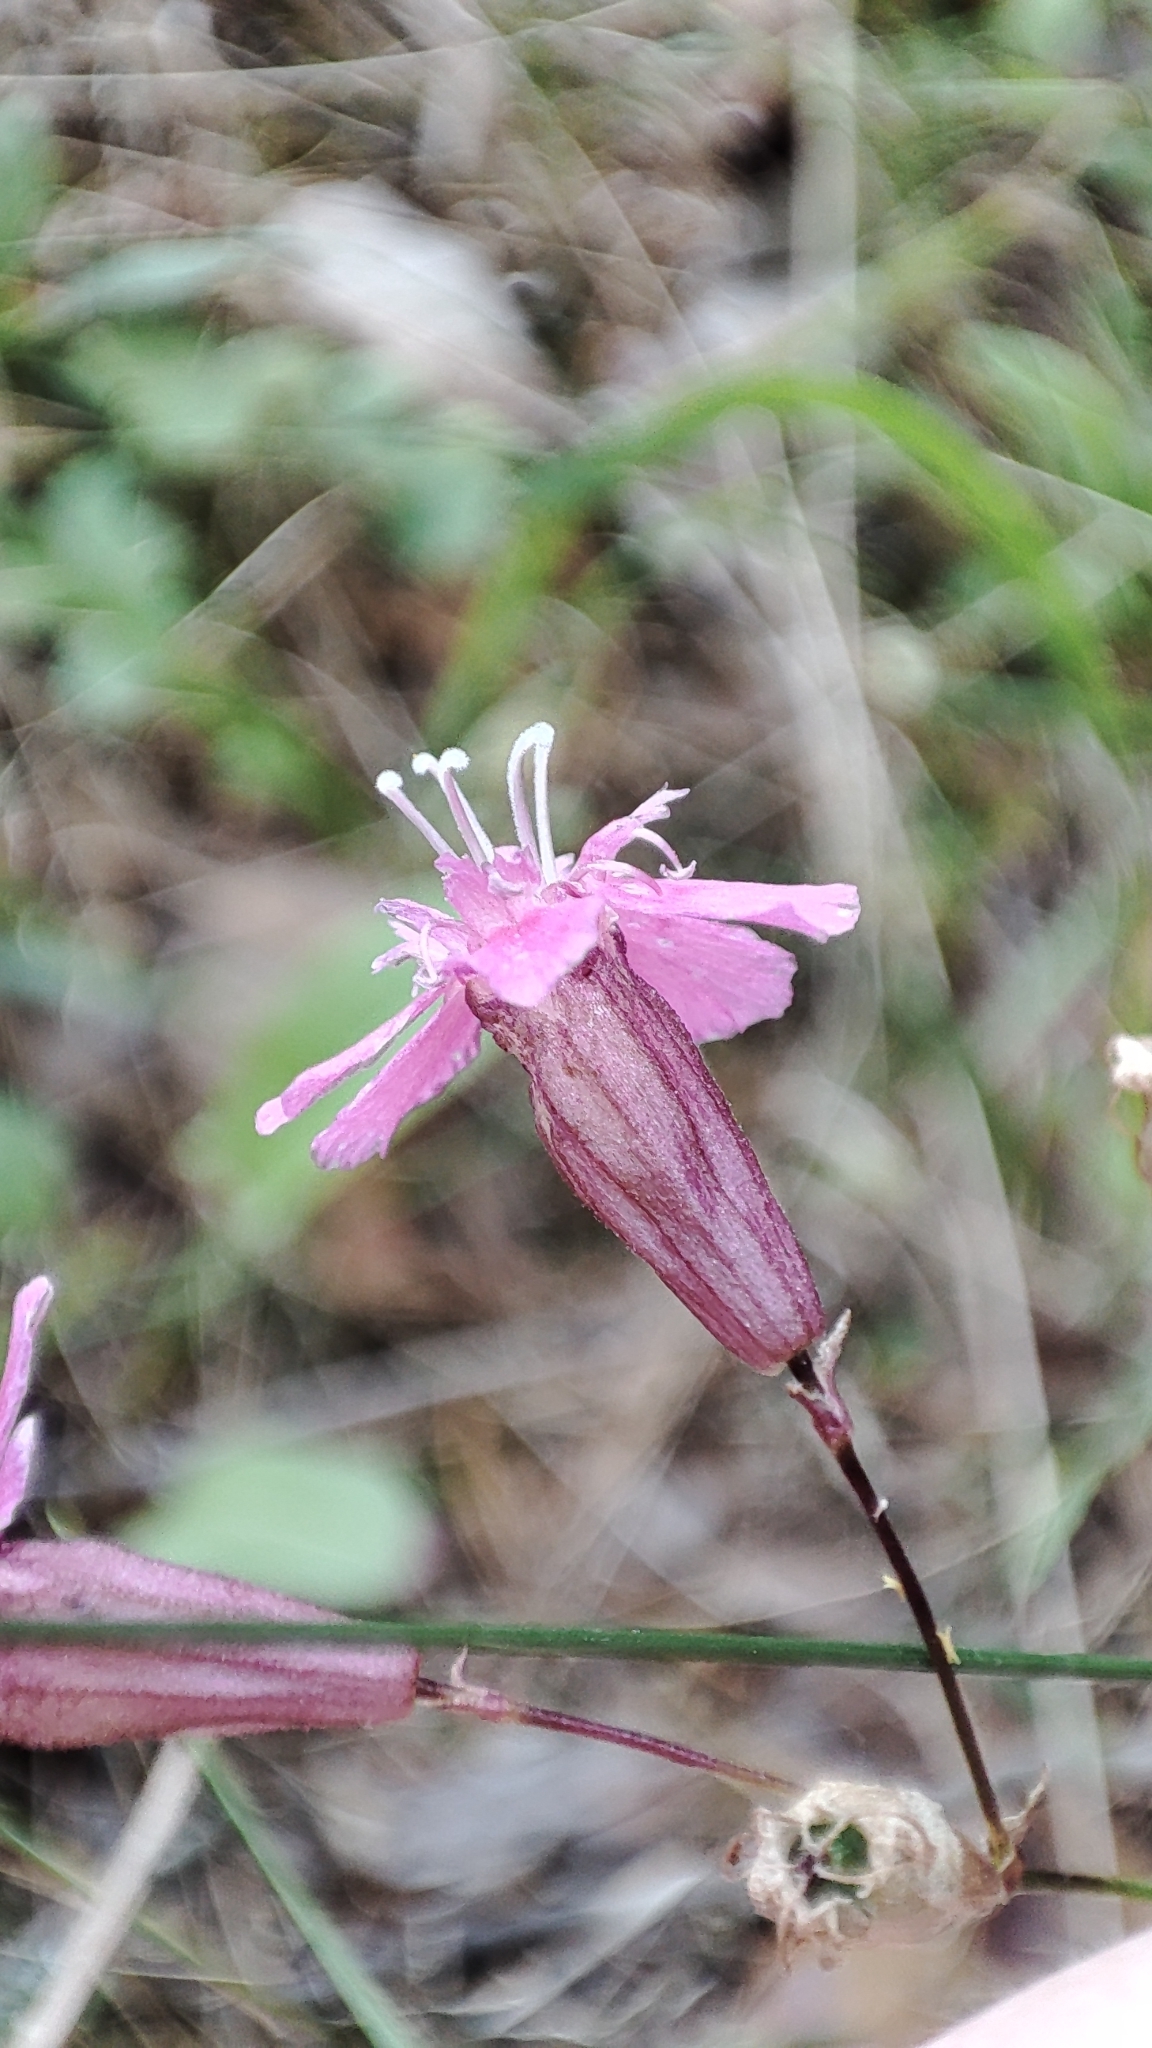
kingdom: Plantae
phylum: Tracheophyta
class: Magnoliopsida
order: Caryophyllales
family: Caryophyllaceae
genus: Viscaria
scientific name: Viscaria vulgaris
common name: Clammy campion
